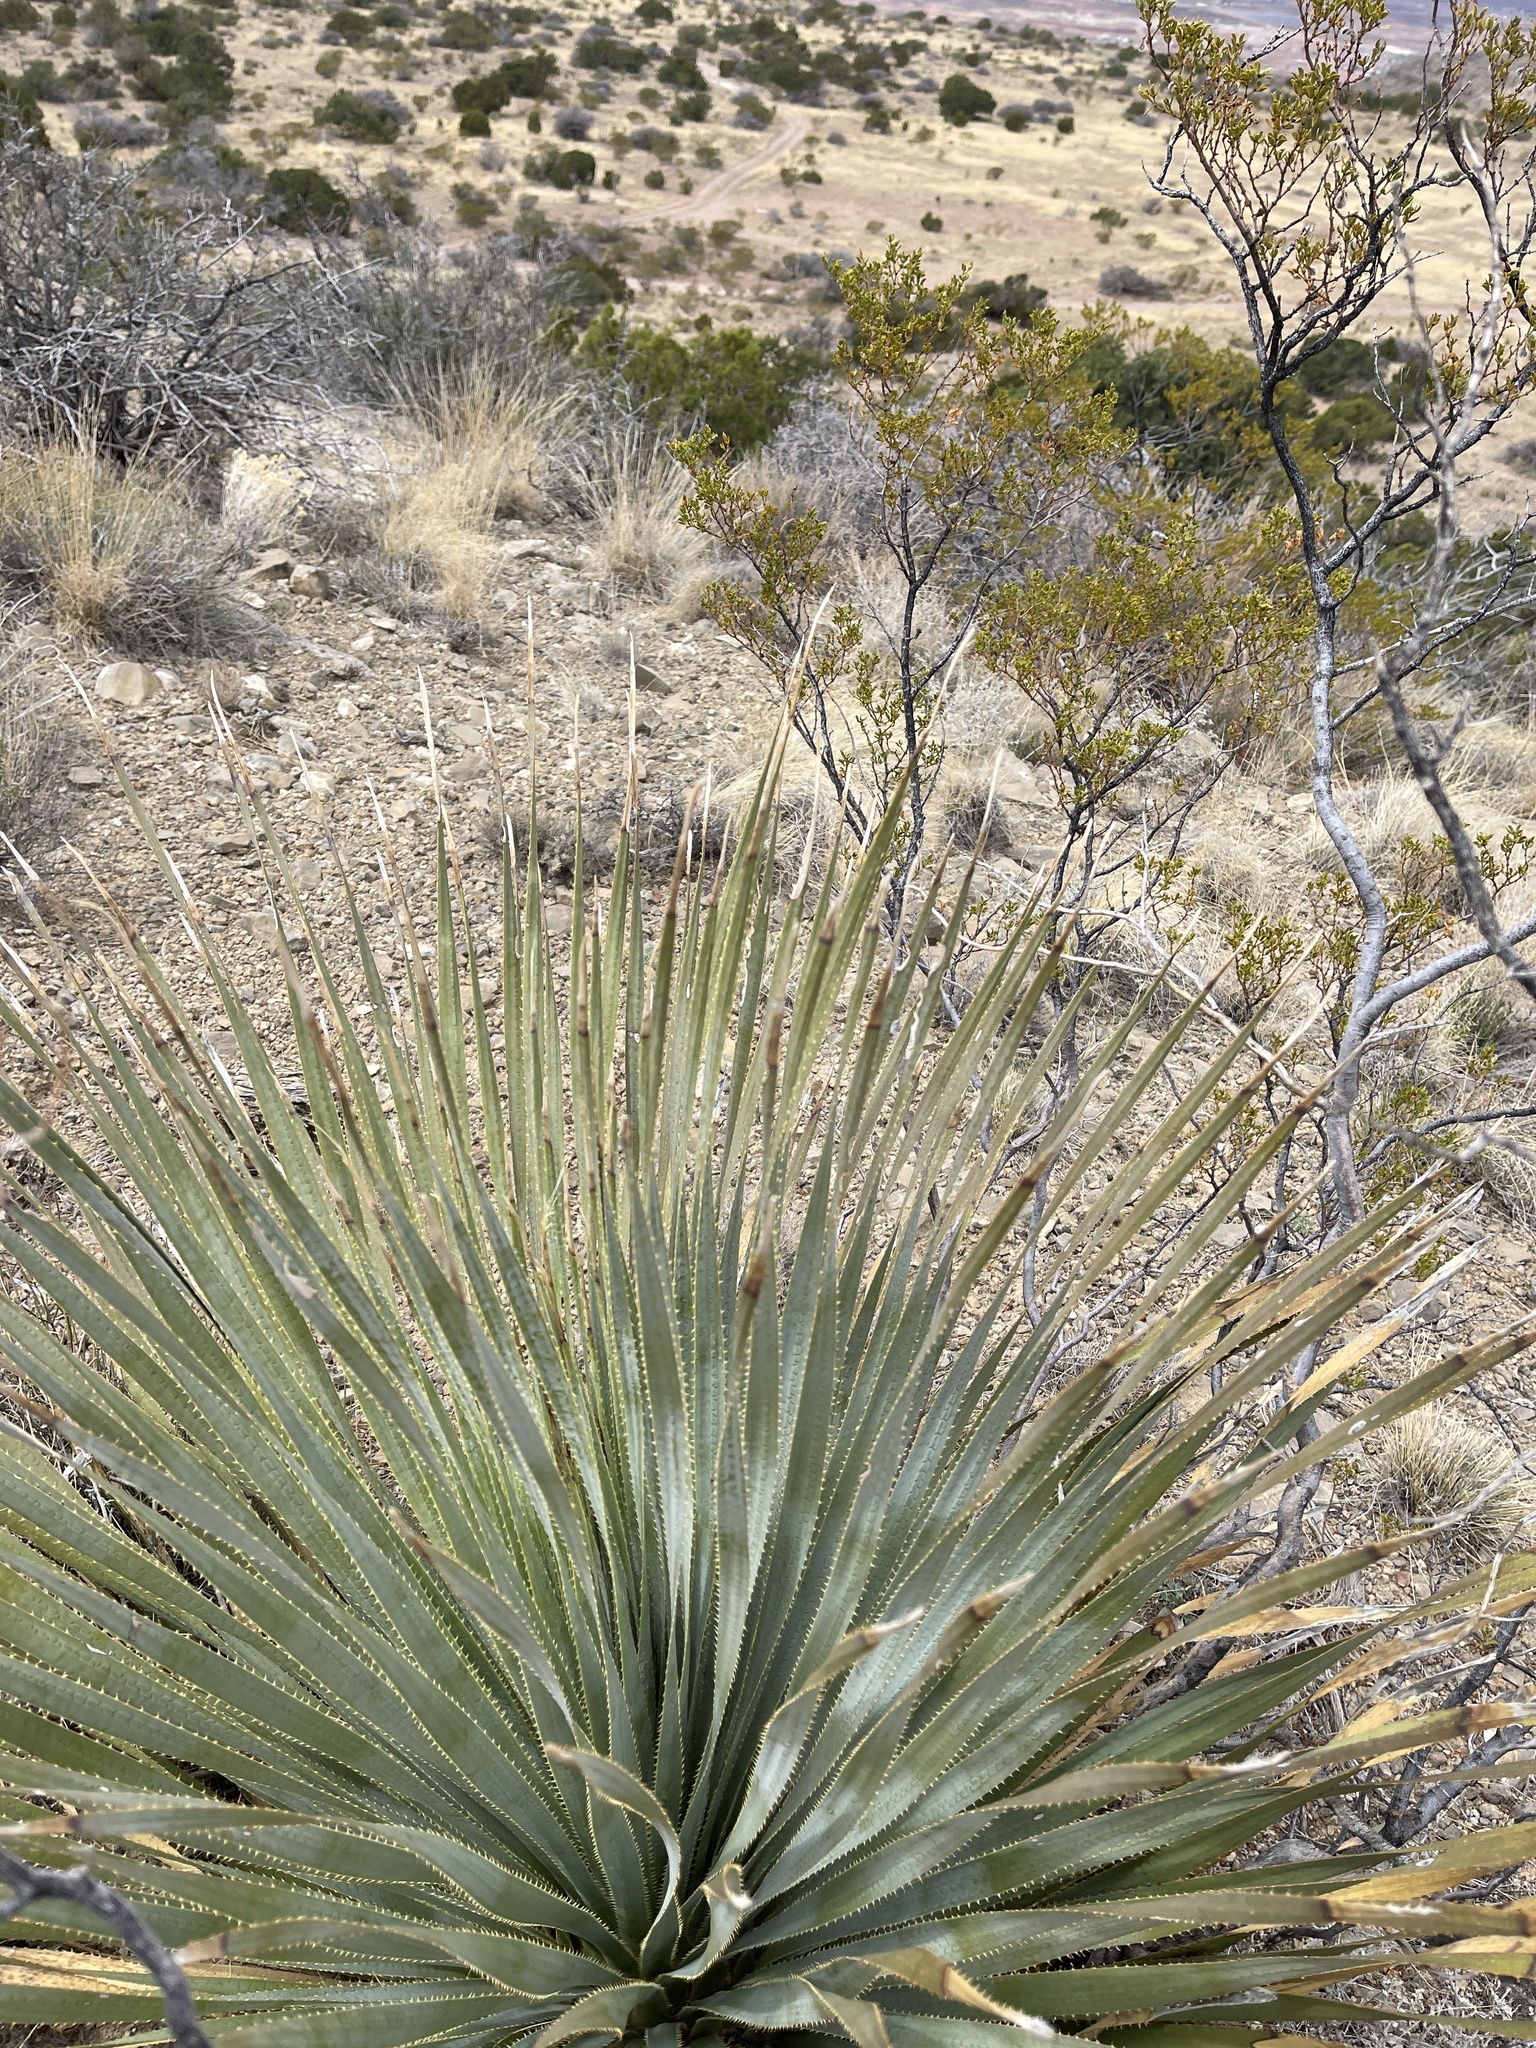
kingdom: Plantae
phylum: Tracheophyta
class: Liliopsida
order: Asparagales
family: Asparagaceae
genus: Dasylirion
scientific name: Dasylirion wheeleri
